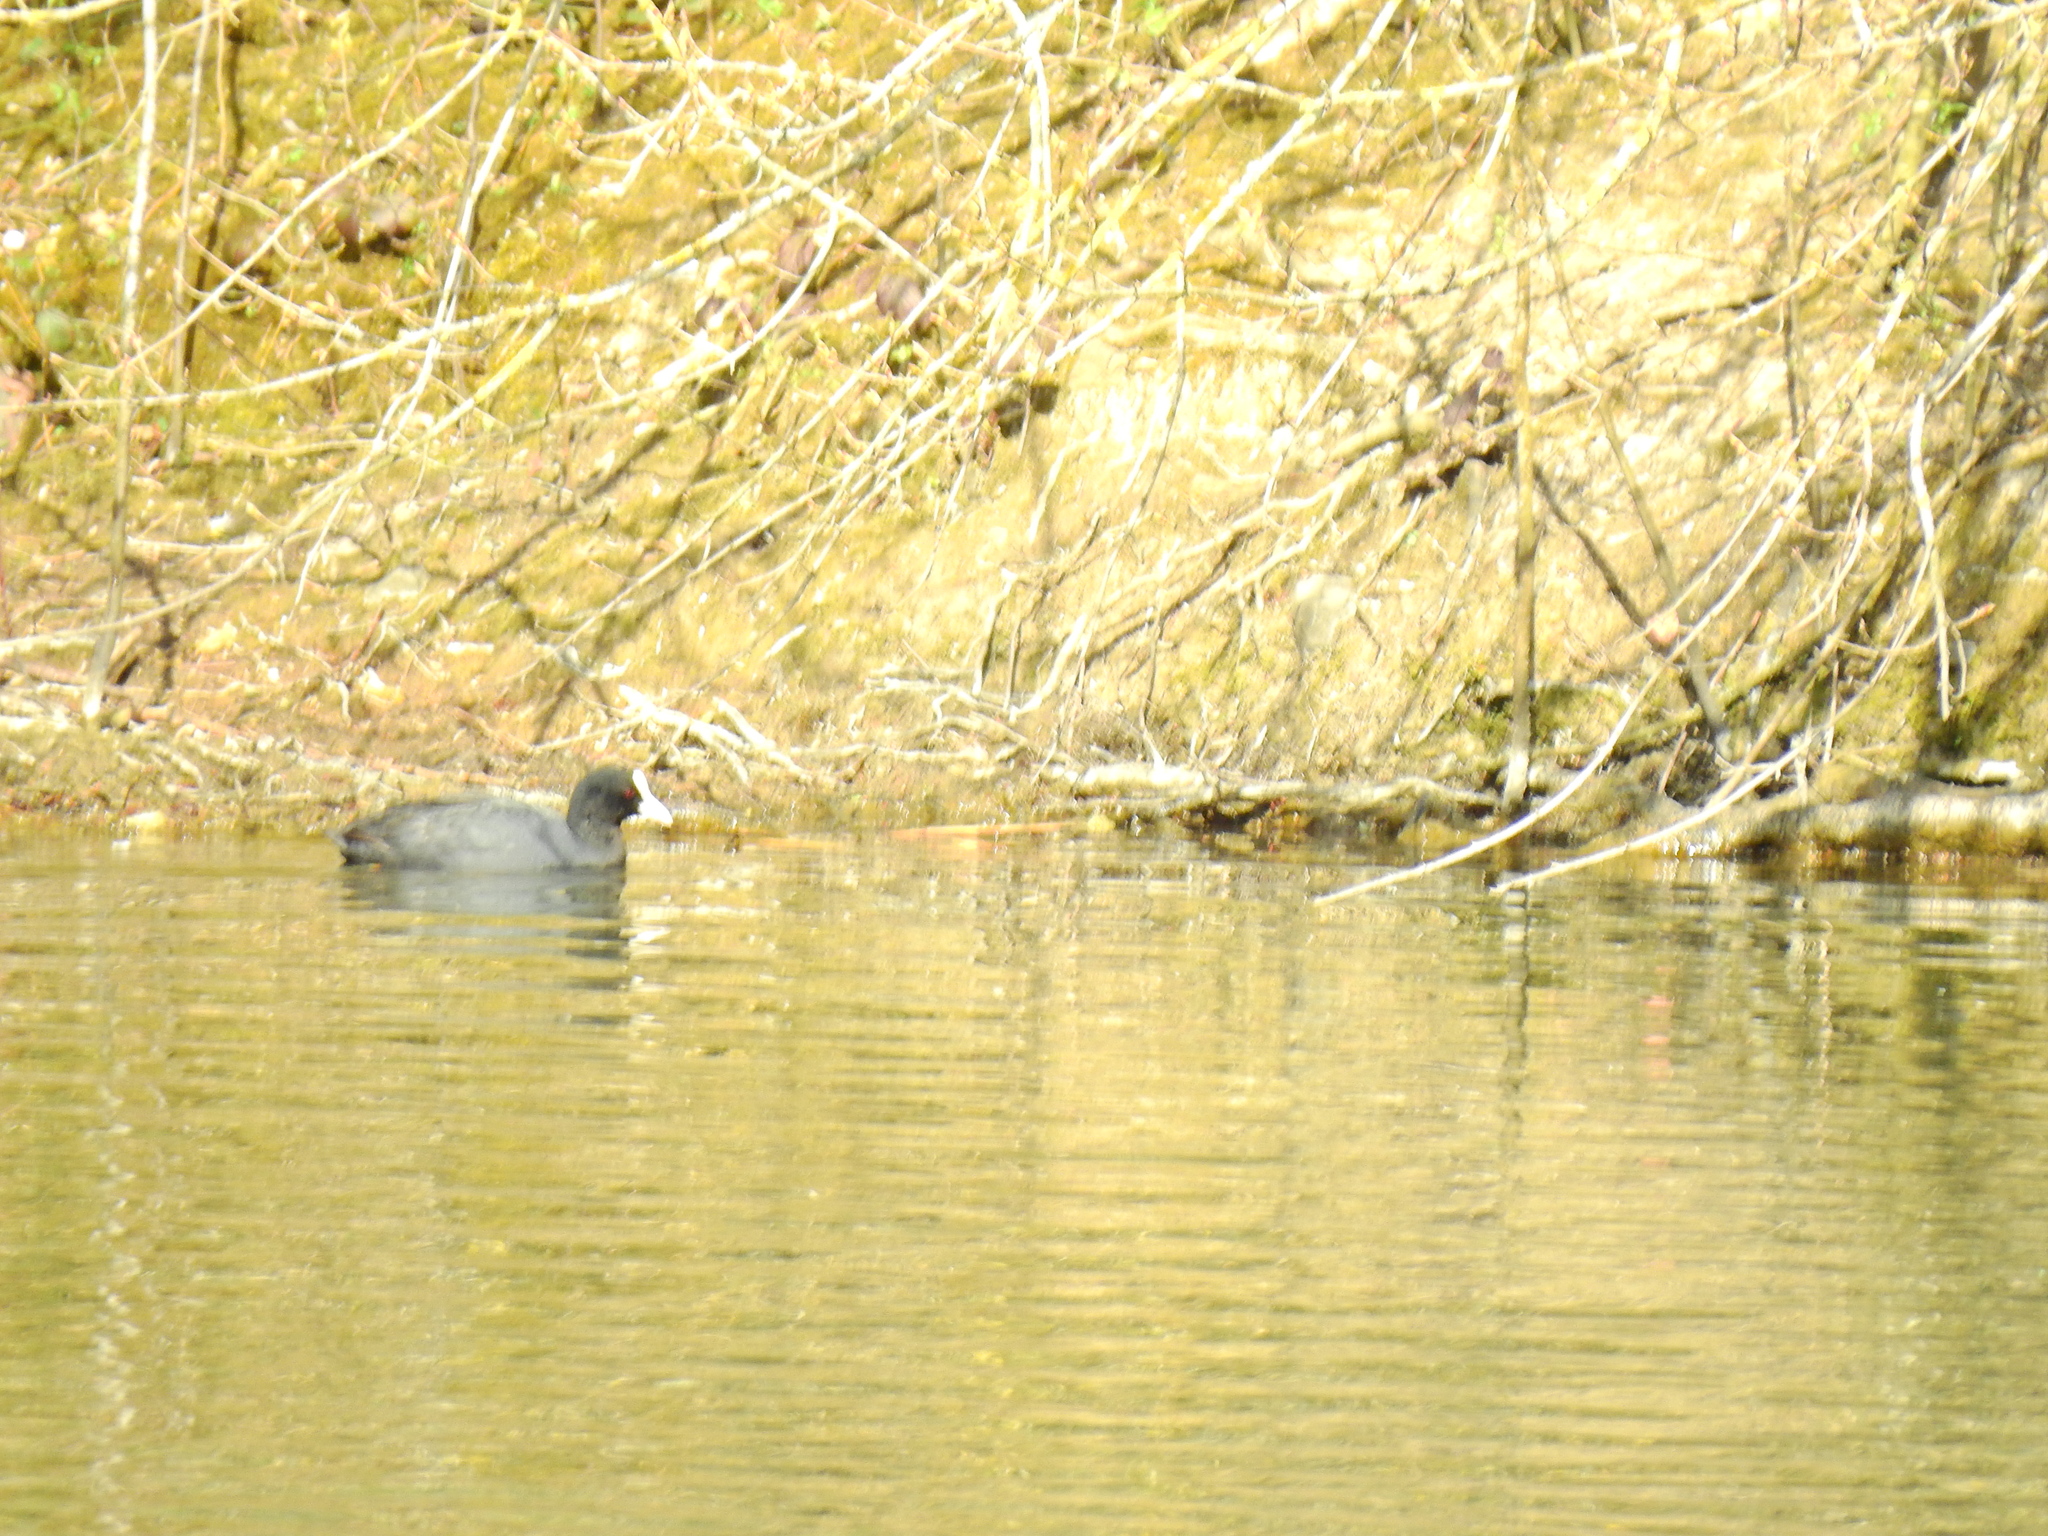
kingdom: Animalia
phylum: Chordata
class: Aves
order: Gruiformes
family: Rallidae
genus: Fulica
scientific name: Fulica atra
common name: Eurasian coot
